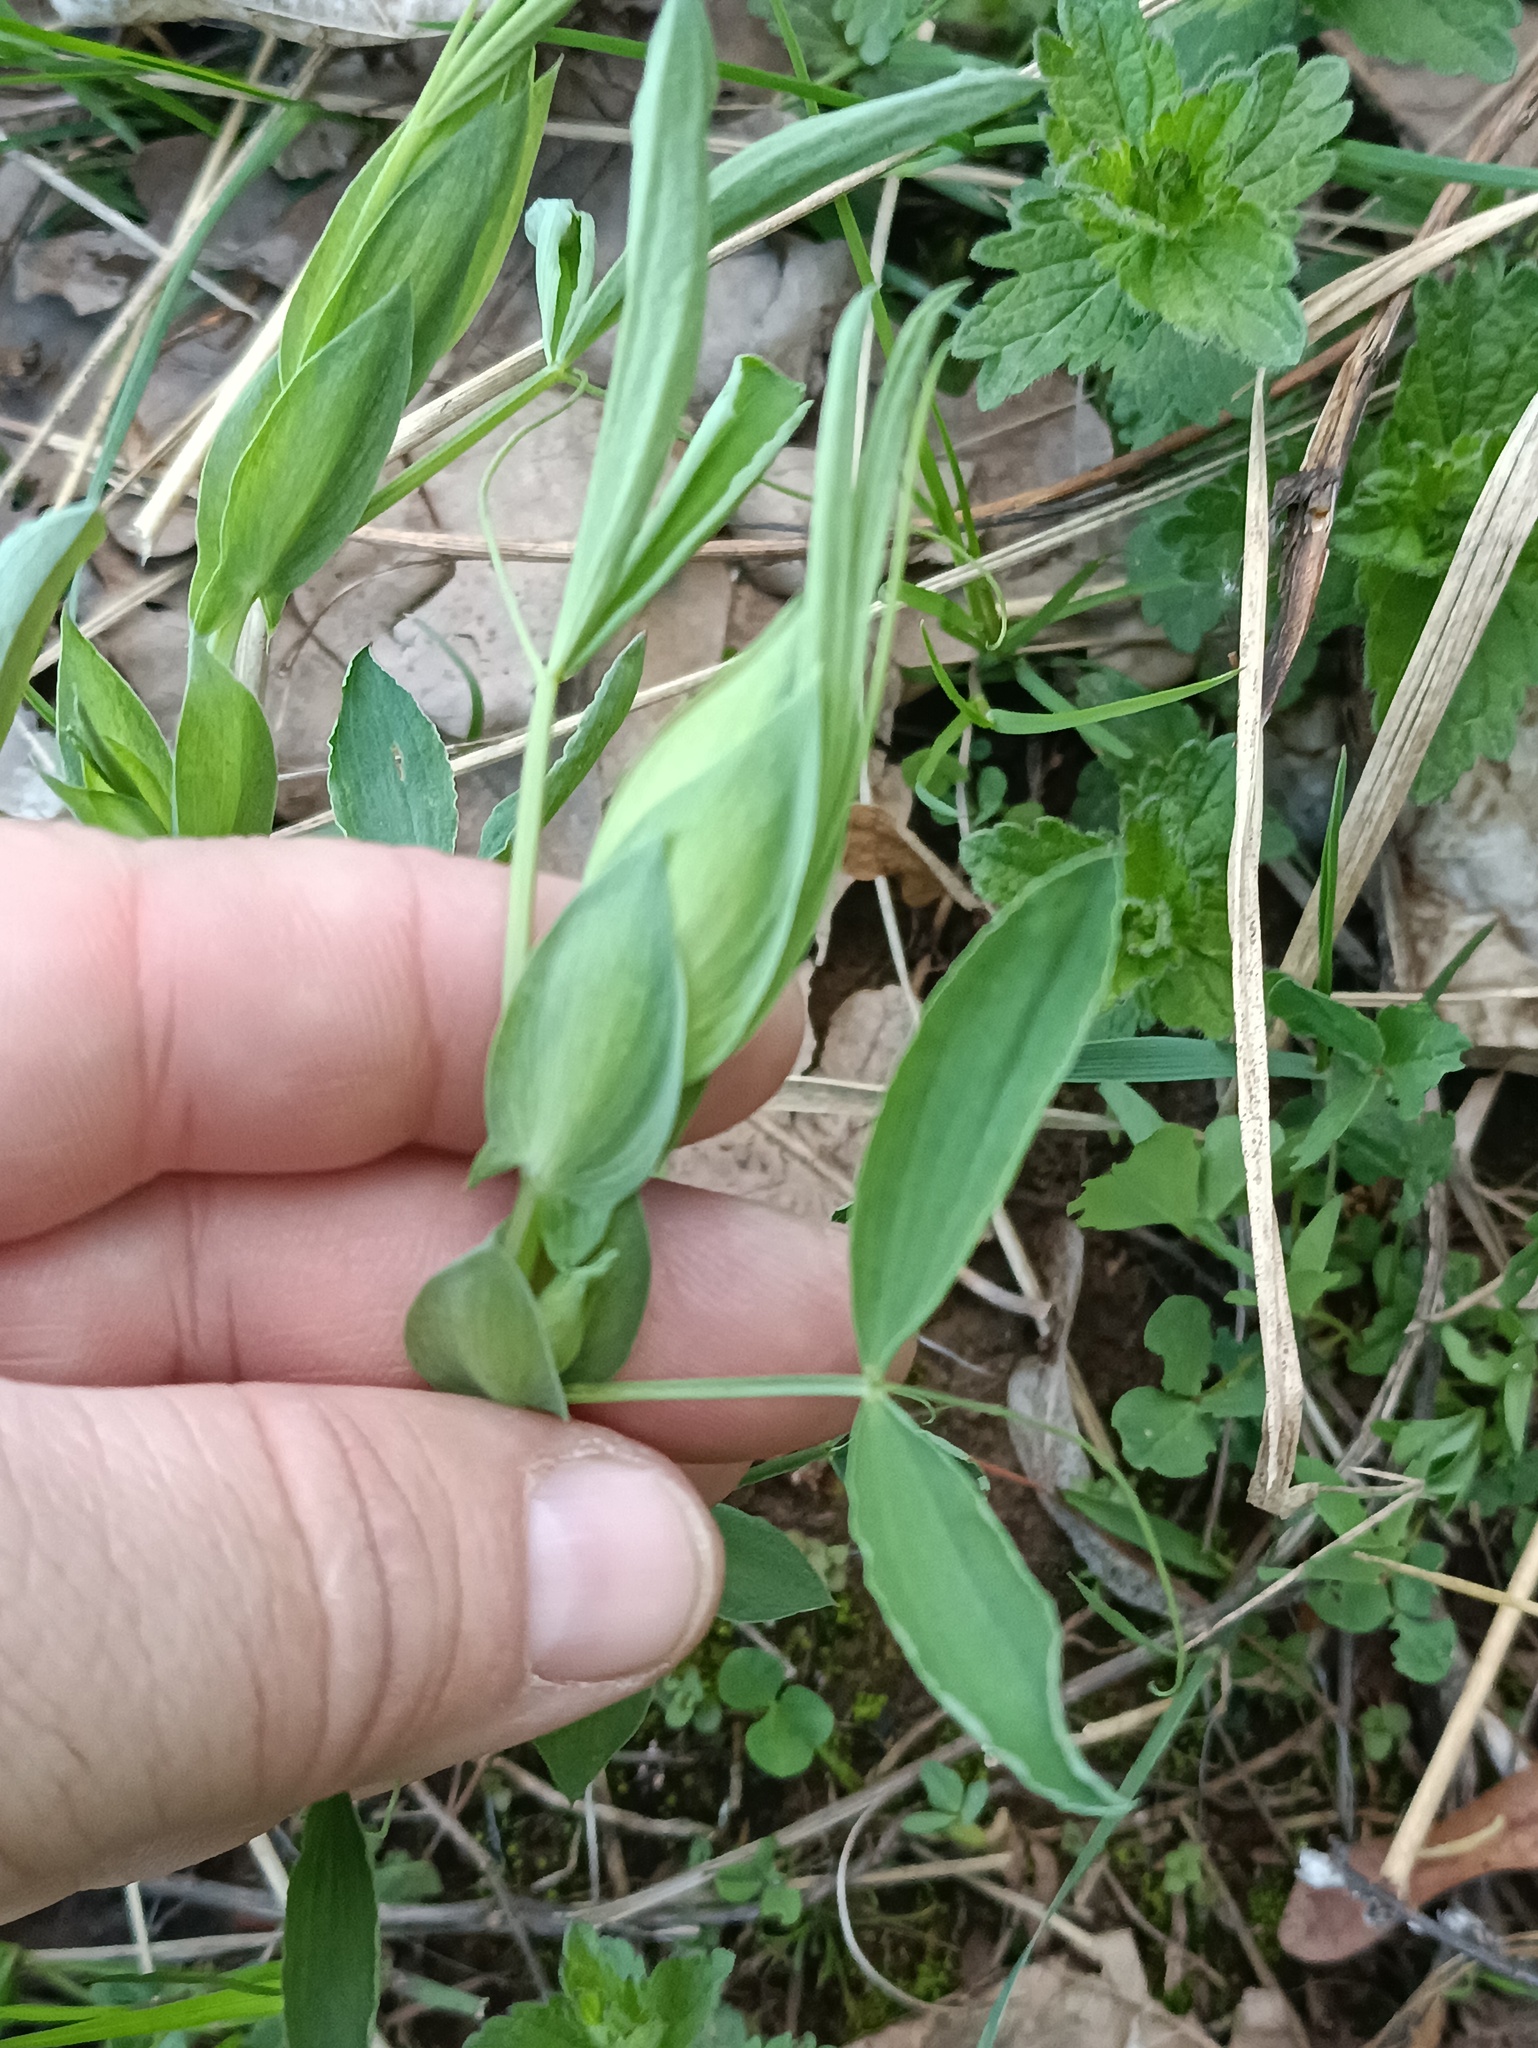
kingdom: Plantae
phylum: Tracheophyta
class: Magnoliopsida
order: Fabales
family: Fabaceae
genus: Lathyrus
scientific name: Lathyrus pratensis
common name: Meadow vetchling
